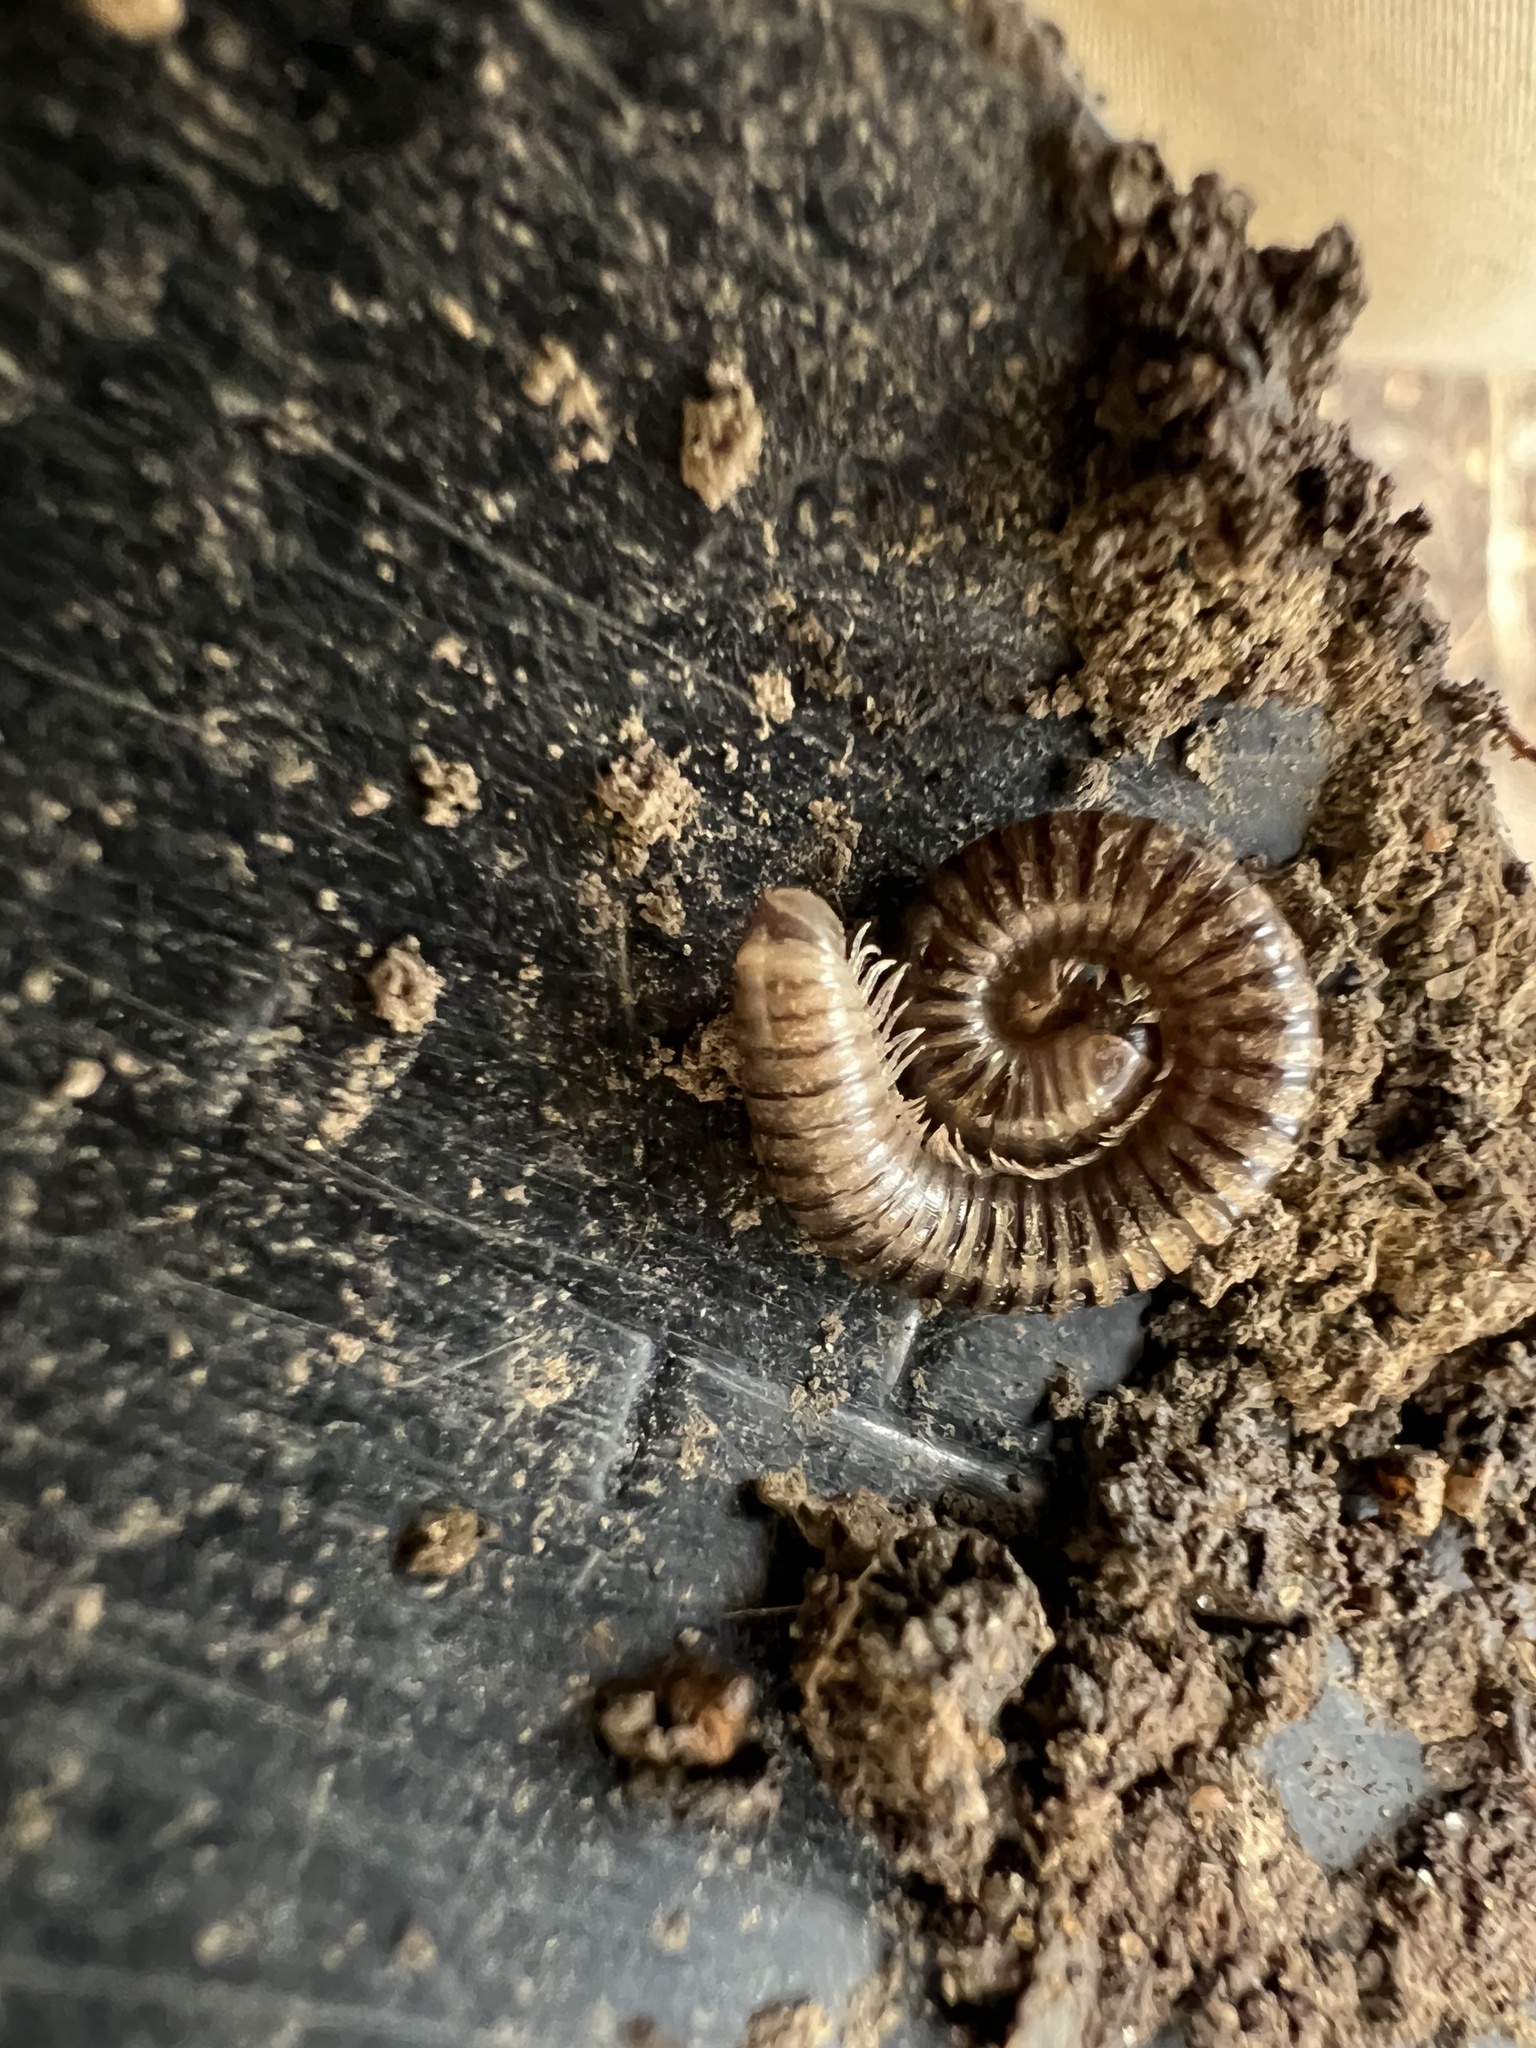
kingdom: Animalia
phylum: Arthropoda
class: Diplopoda
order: Julida
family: Julidae
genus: Cylindroiulus
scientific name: Cylindroiulus caeruleocinctus
